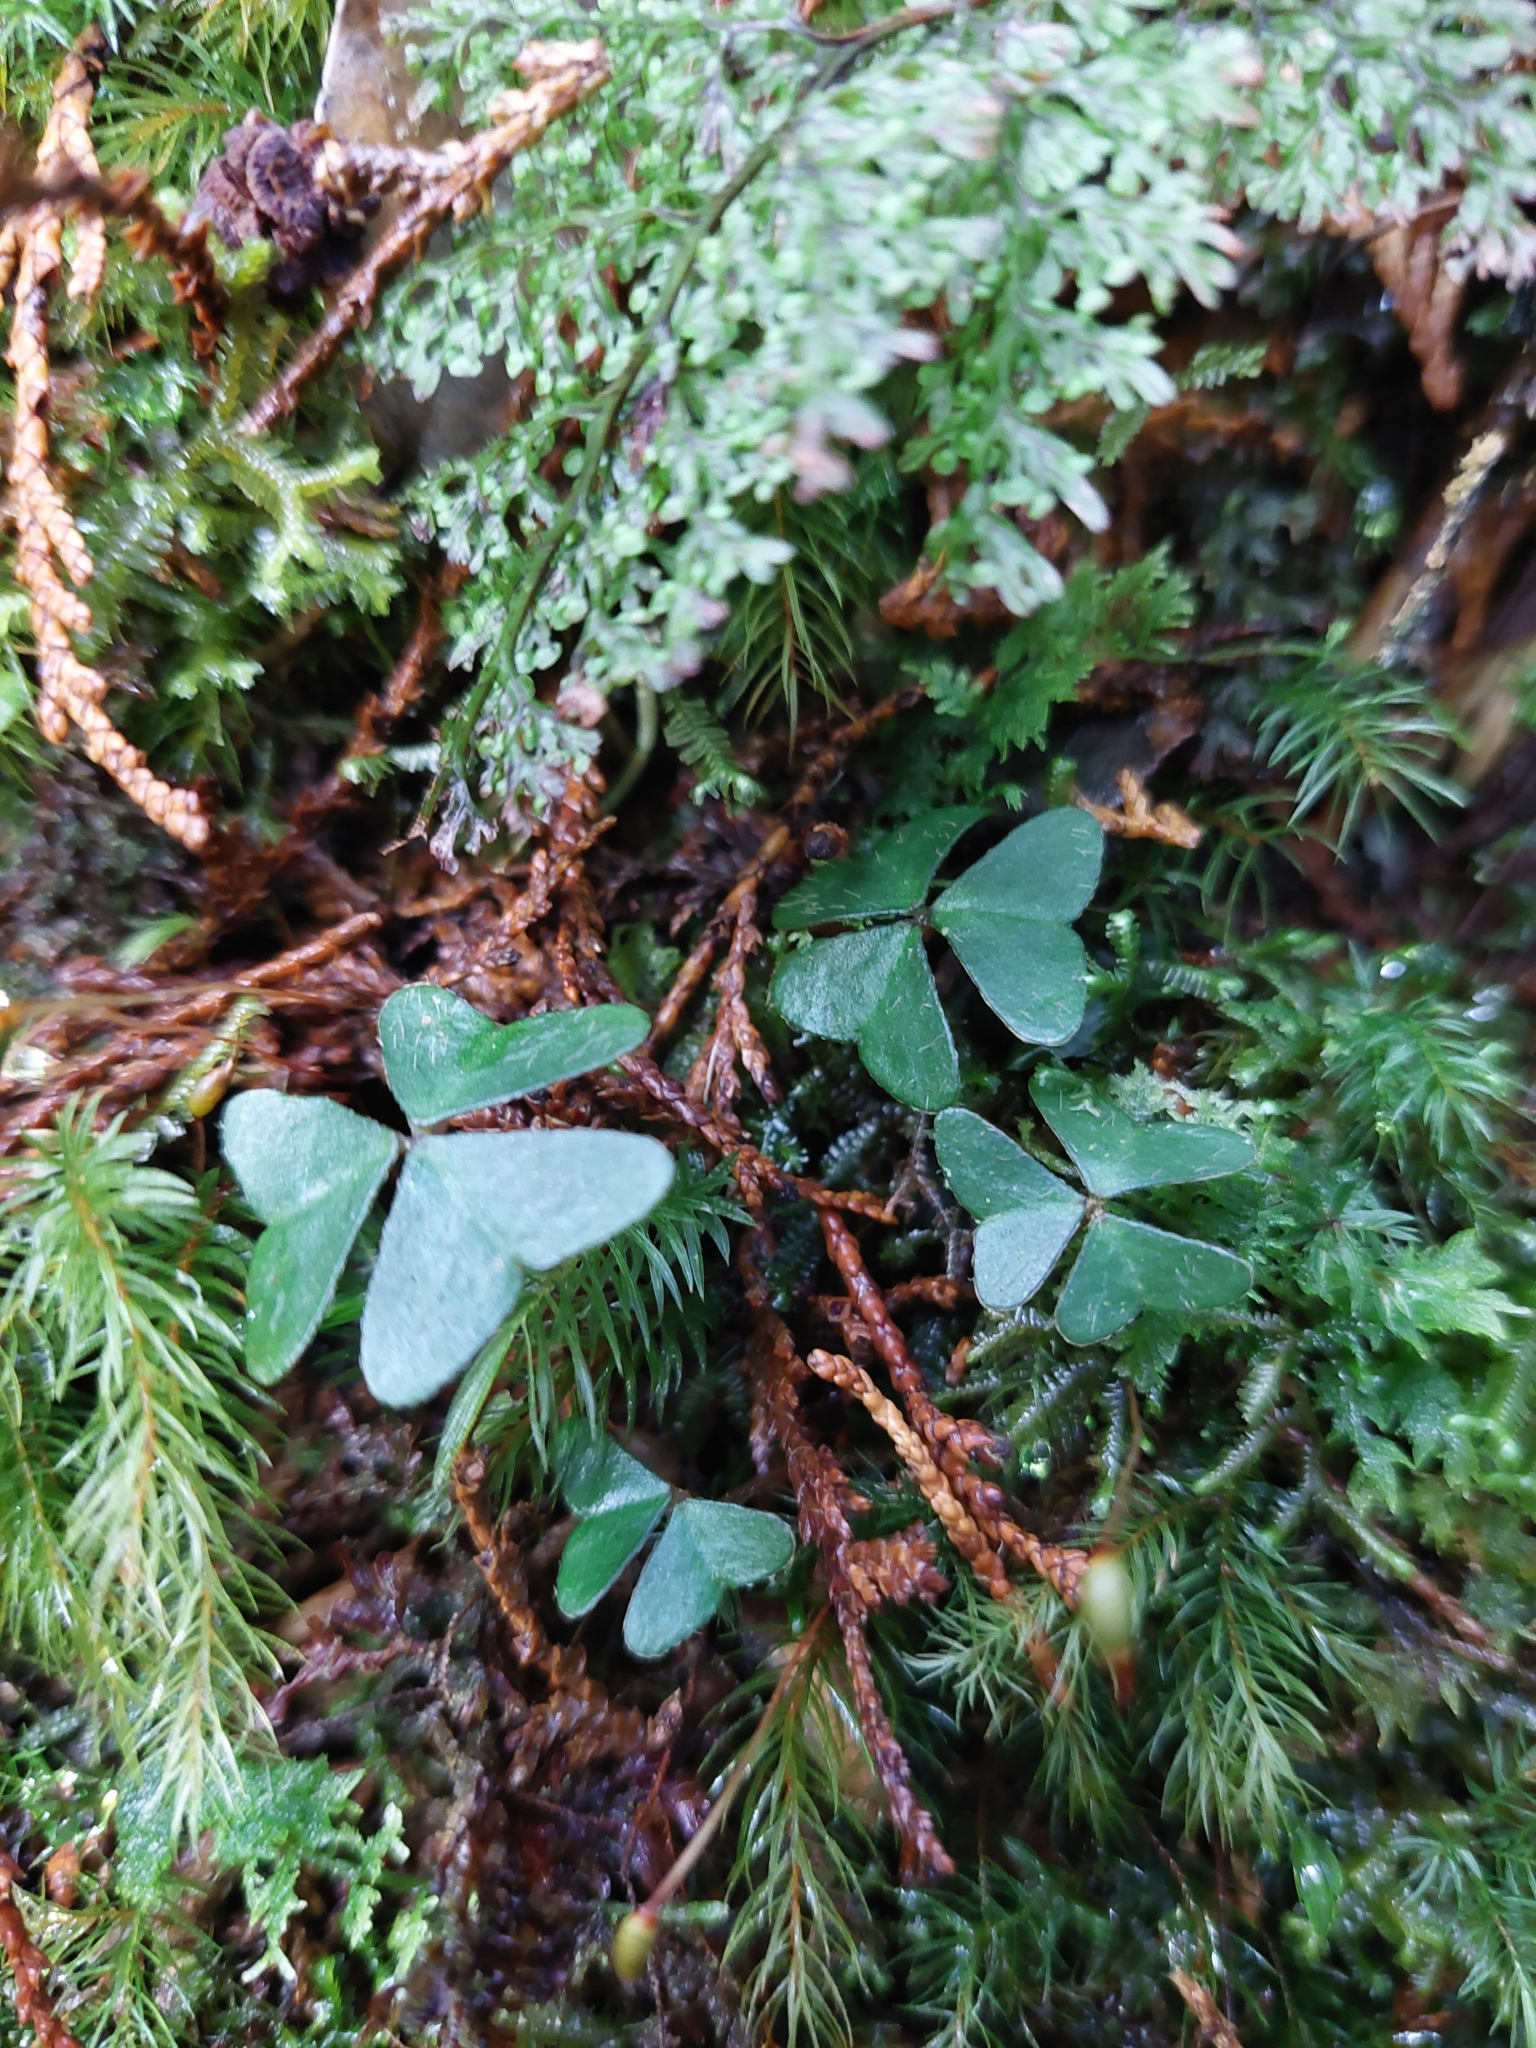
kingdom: Plantae
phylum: Tracheophyta
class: Magnoliopsida
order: Oxalidales
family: Oxalidaceae
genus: Oxalis
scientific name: Oxalis griffithii
